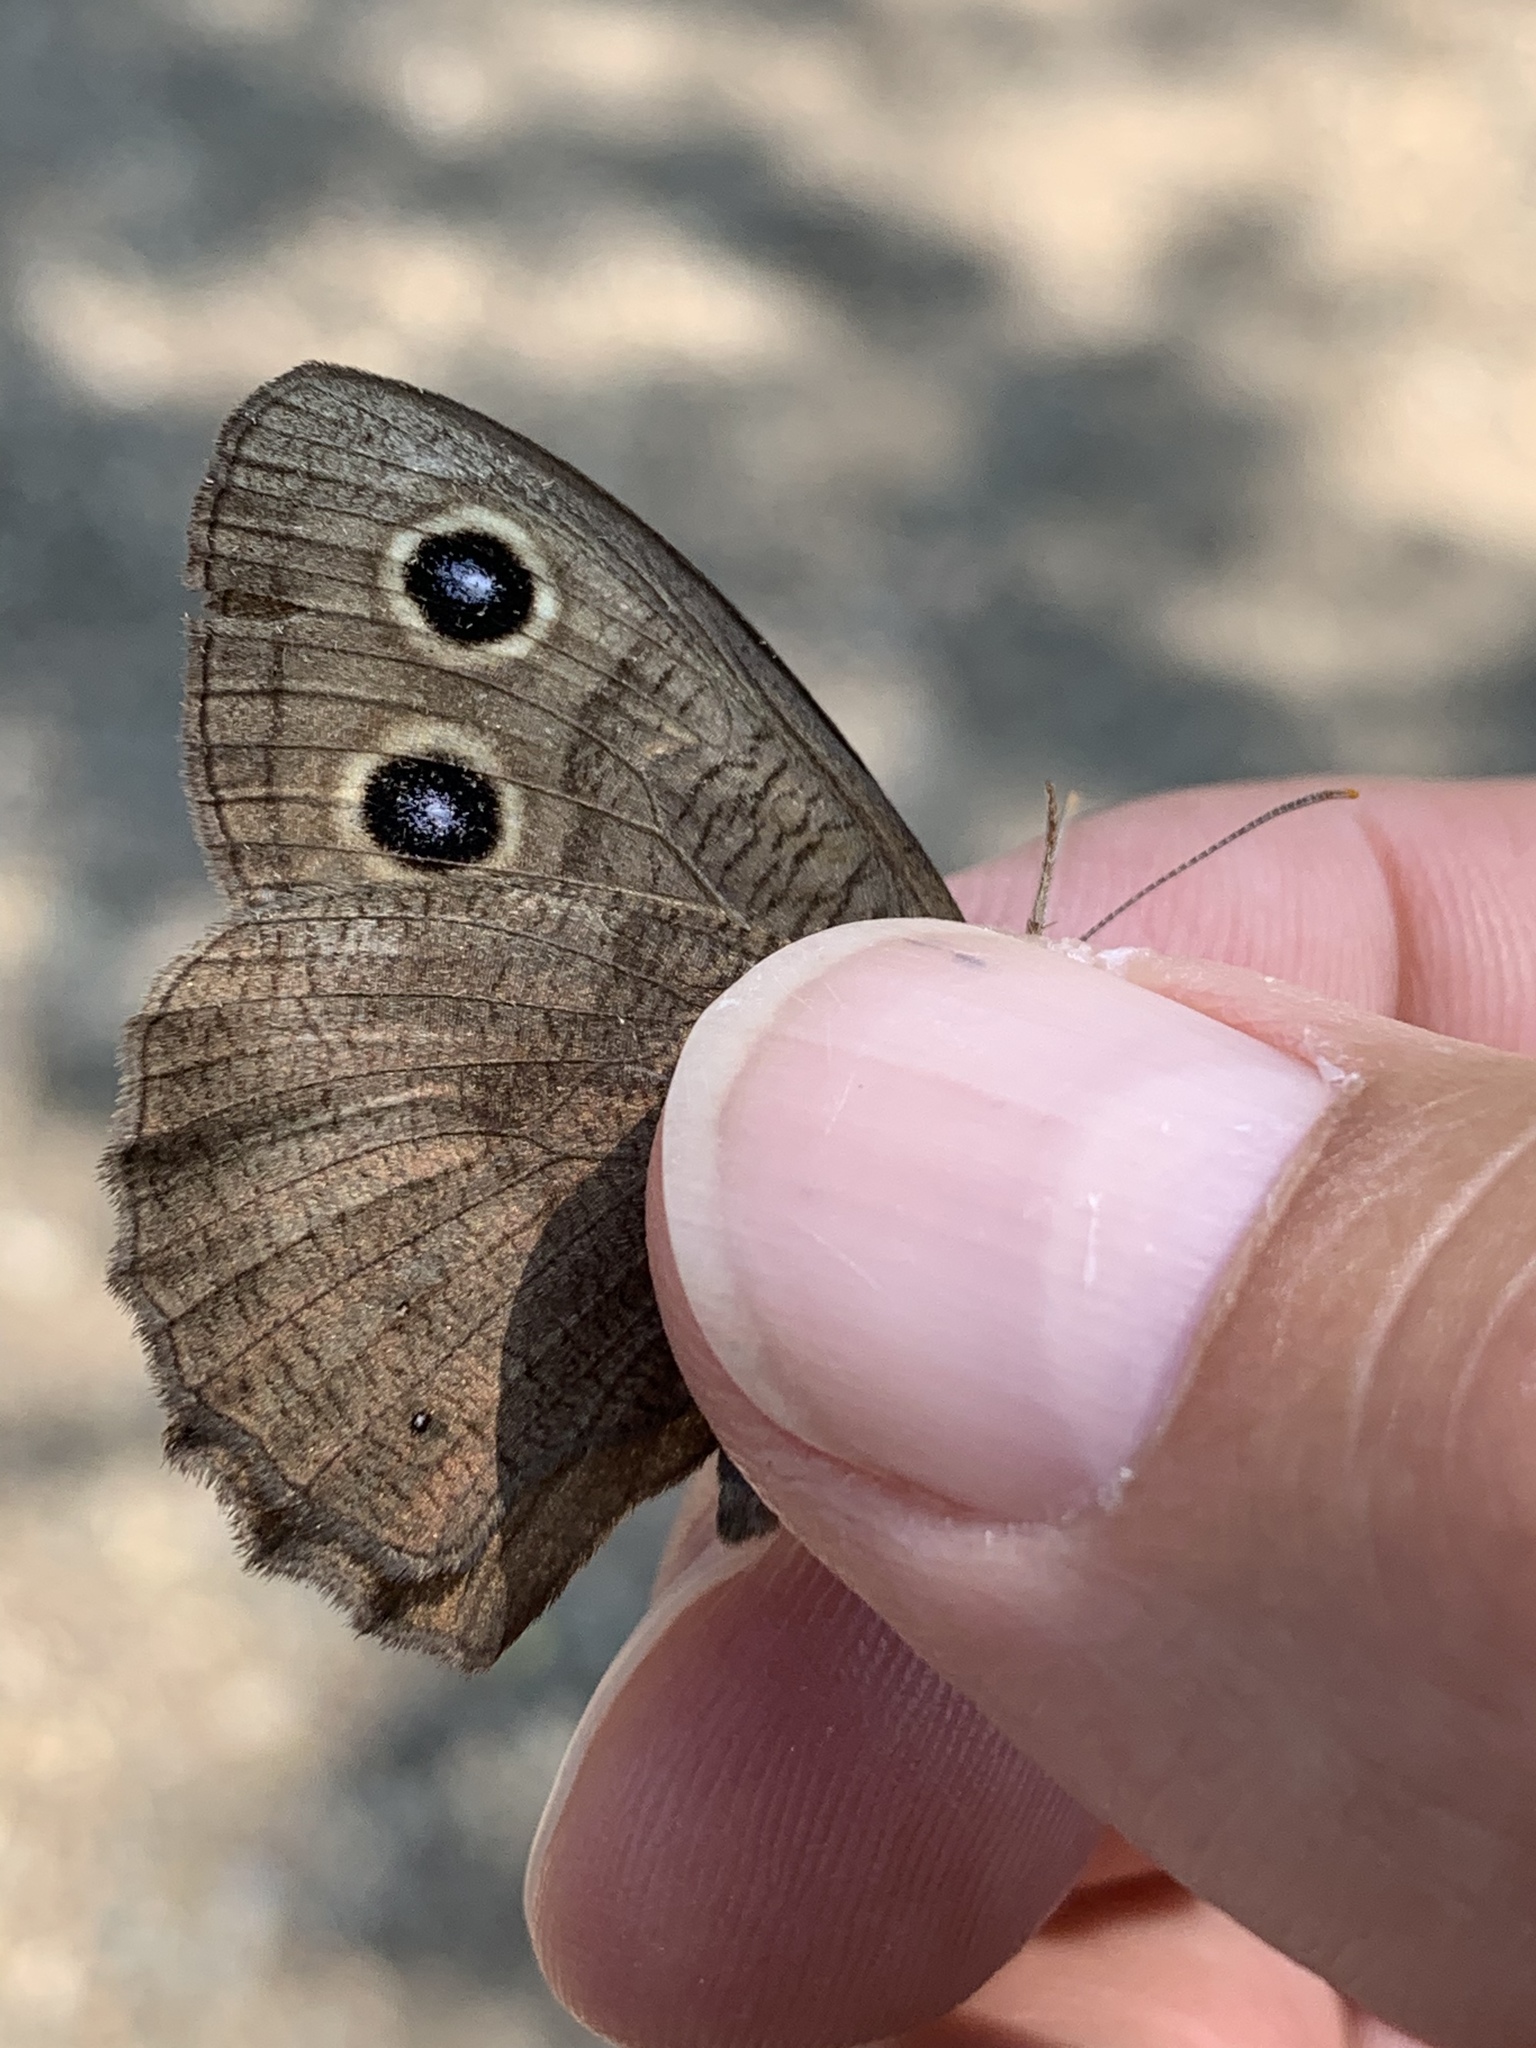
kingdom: Animalia
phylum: Arthropoda
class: Insecta
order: Lepidoptera
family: Nymphalidae
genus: Cercyonis
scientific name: Cercyonis pegala
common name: Common wood-nymph
